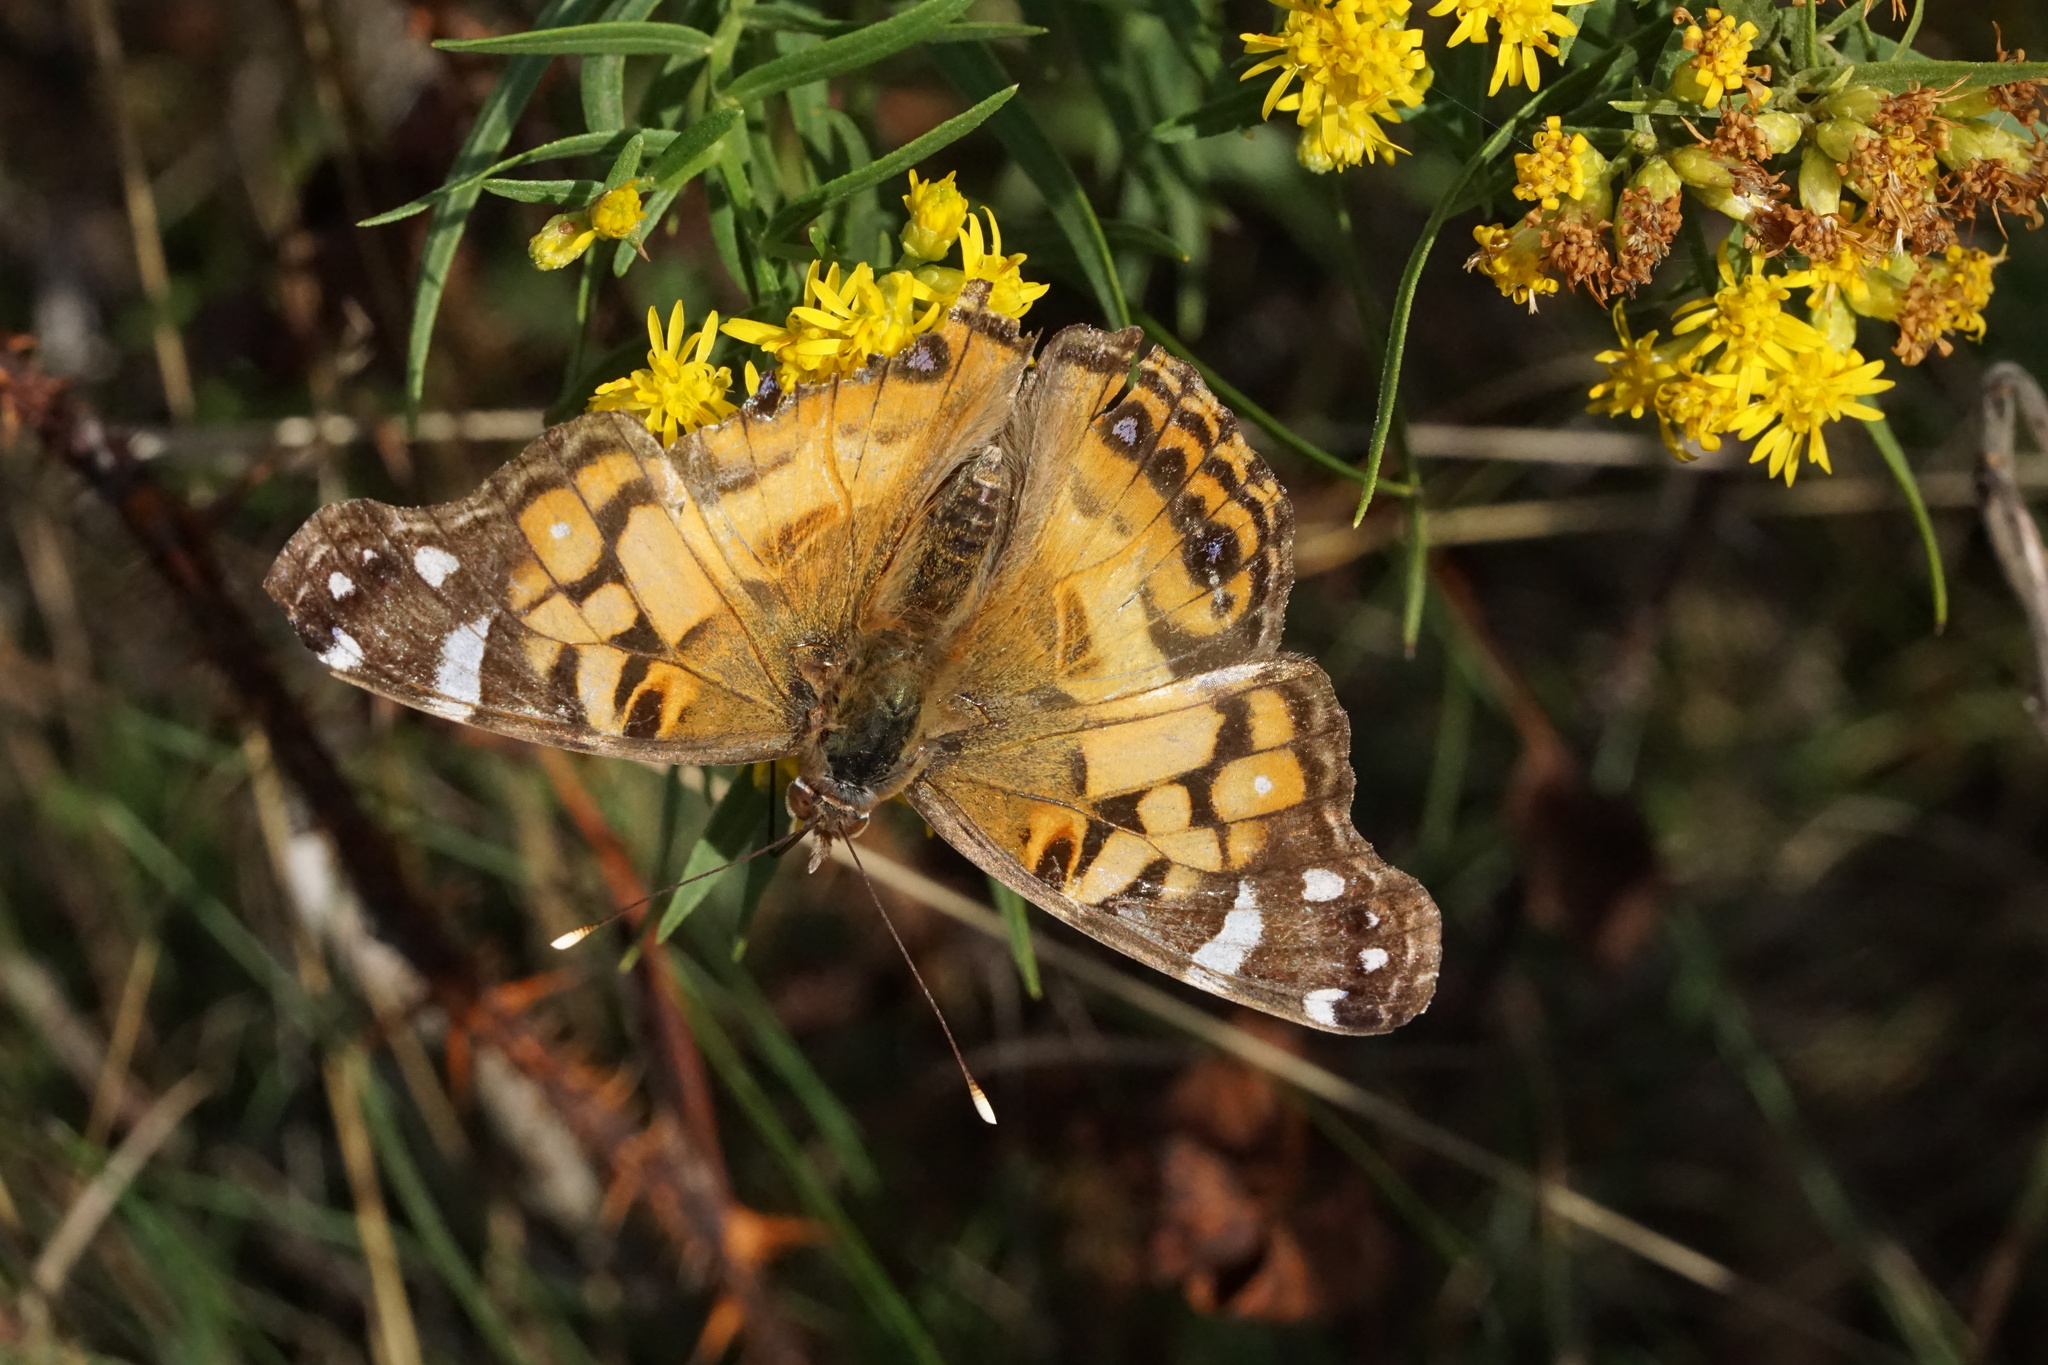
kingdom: Animalia
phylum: Arthropoda
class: Insecta
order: Lepidoptera
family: Nymphalidae
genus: Vanessa
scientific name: Vanessa virginiensis
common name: American lady
